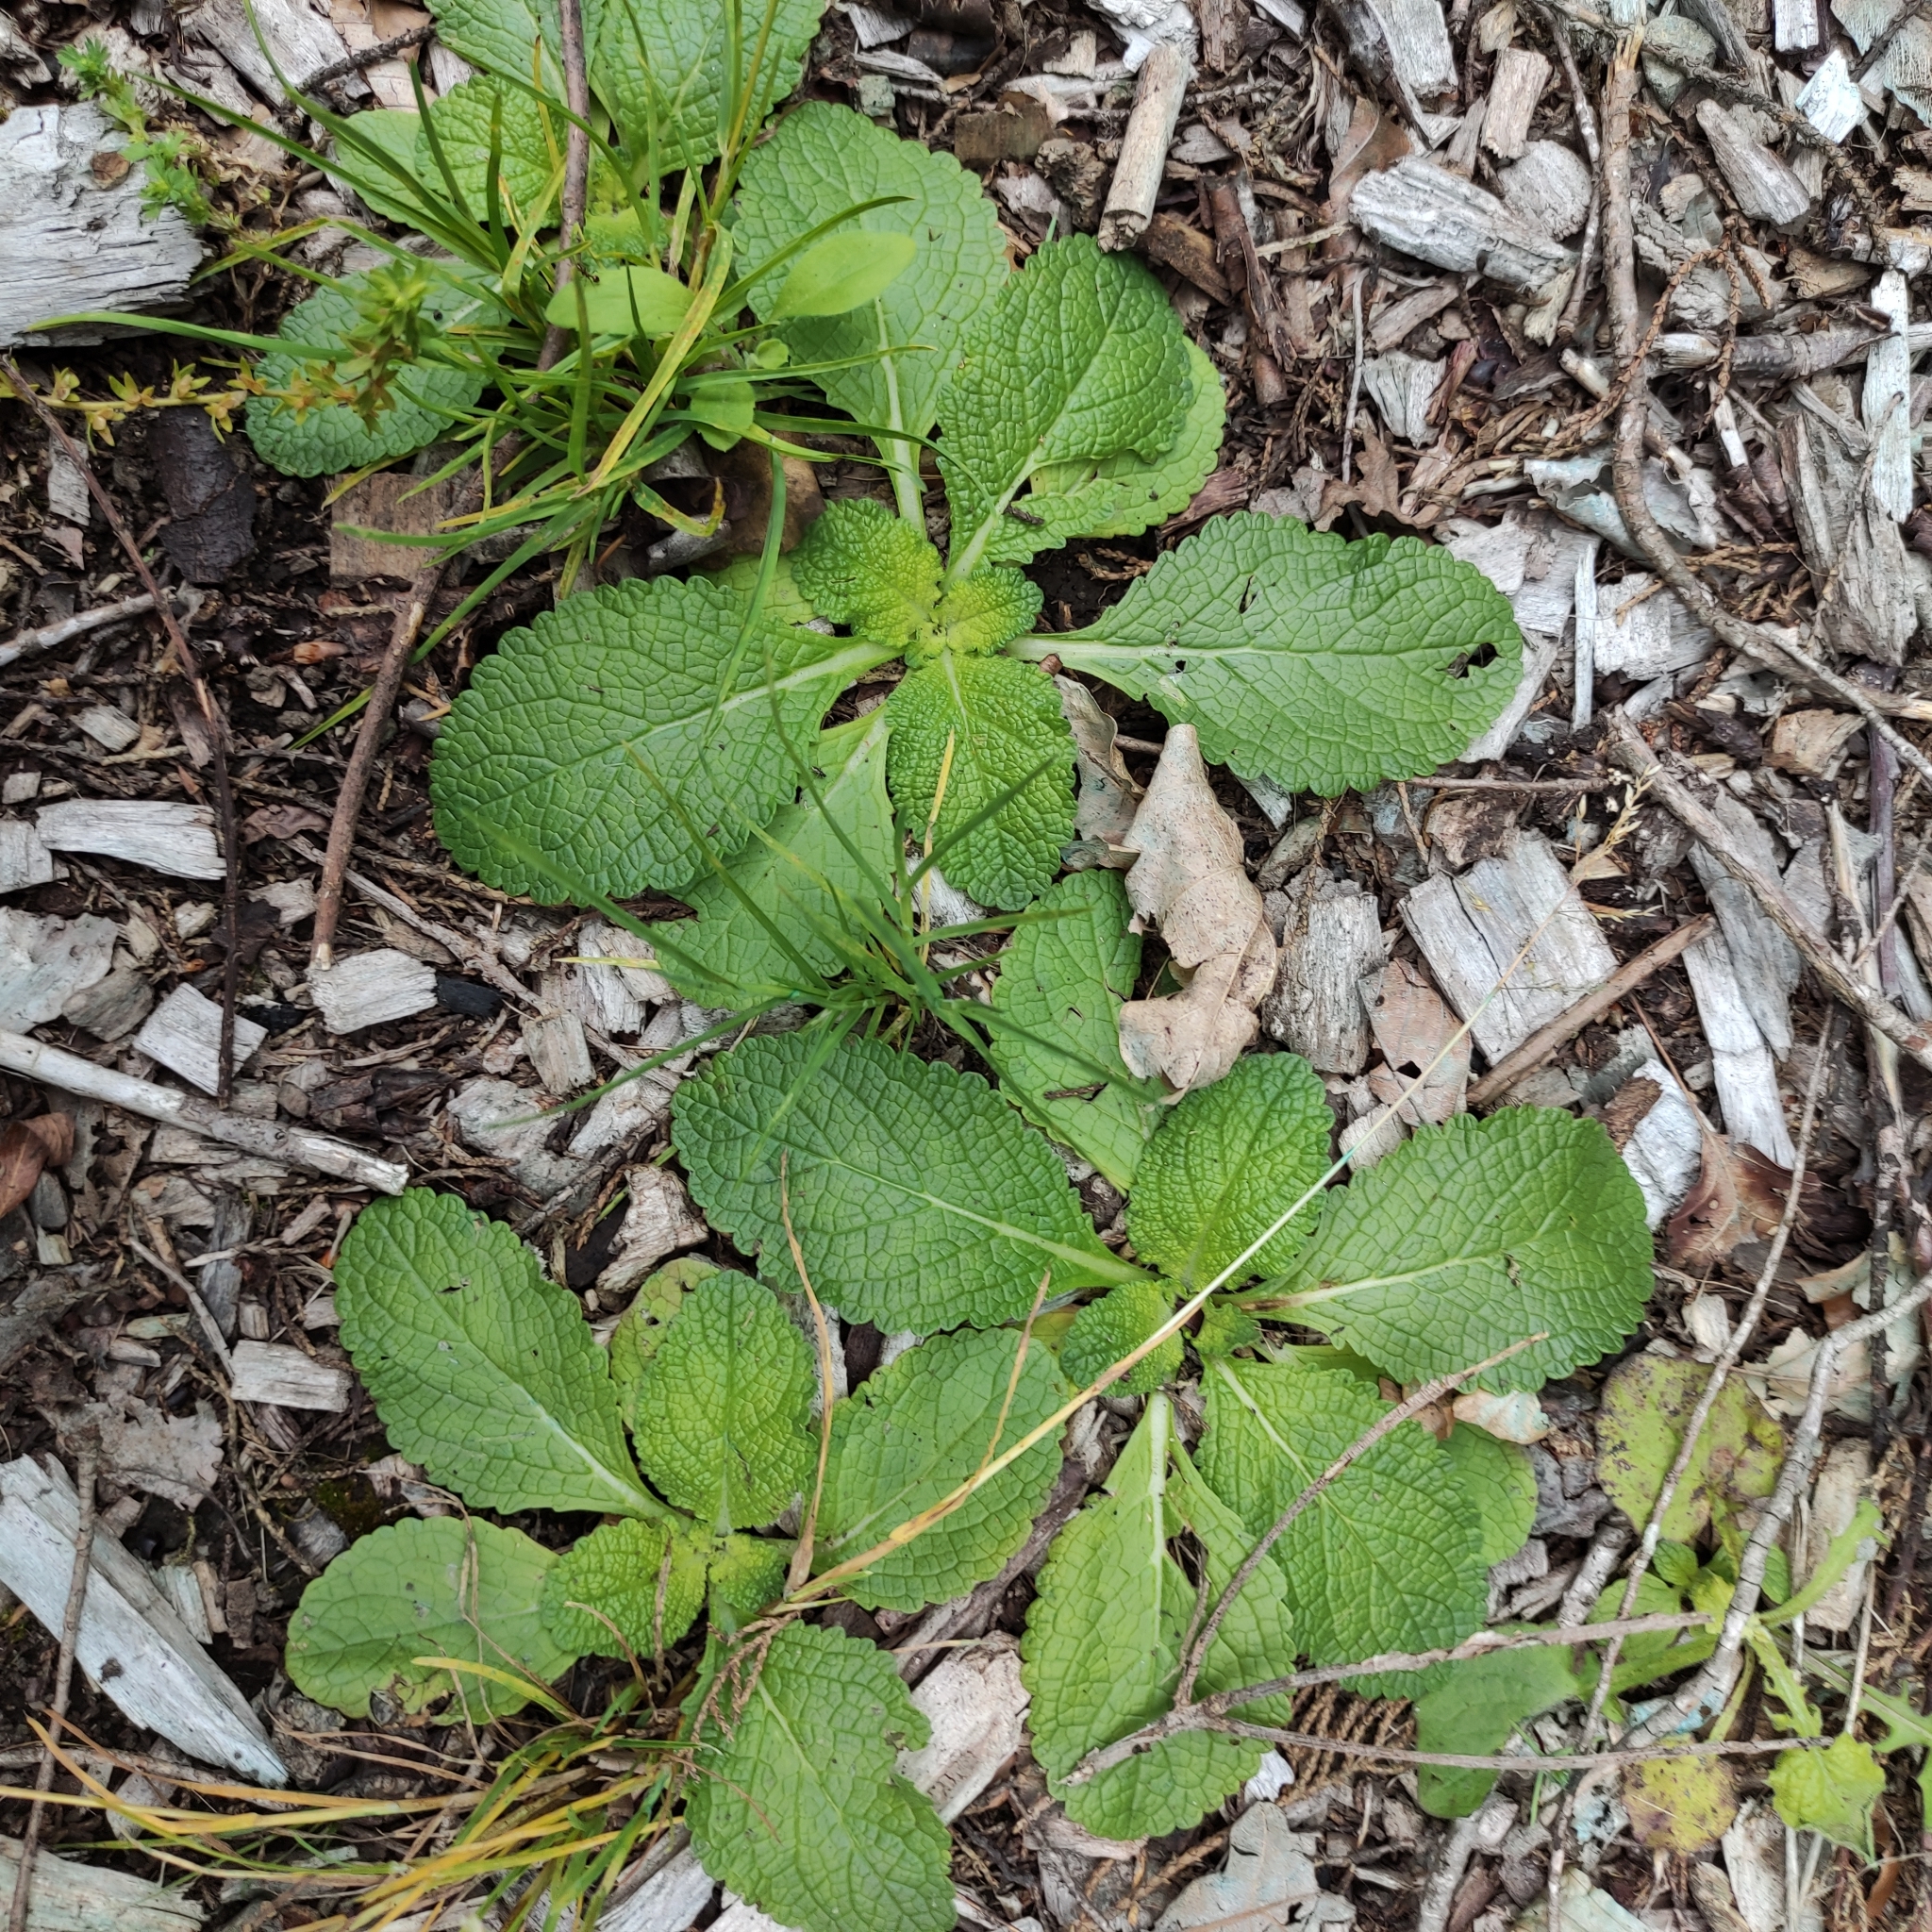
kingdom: Plantae
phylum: Tracheophyta
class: Magnoliopsida
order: Lamiales
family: Scrophulariaceae
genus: Verbascum
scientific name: Verbascum virgatum
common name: Twiggy mullein
